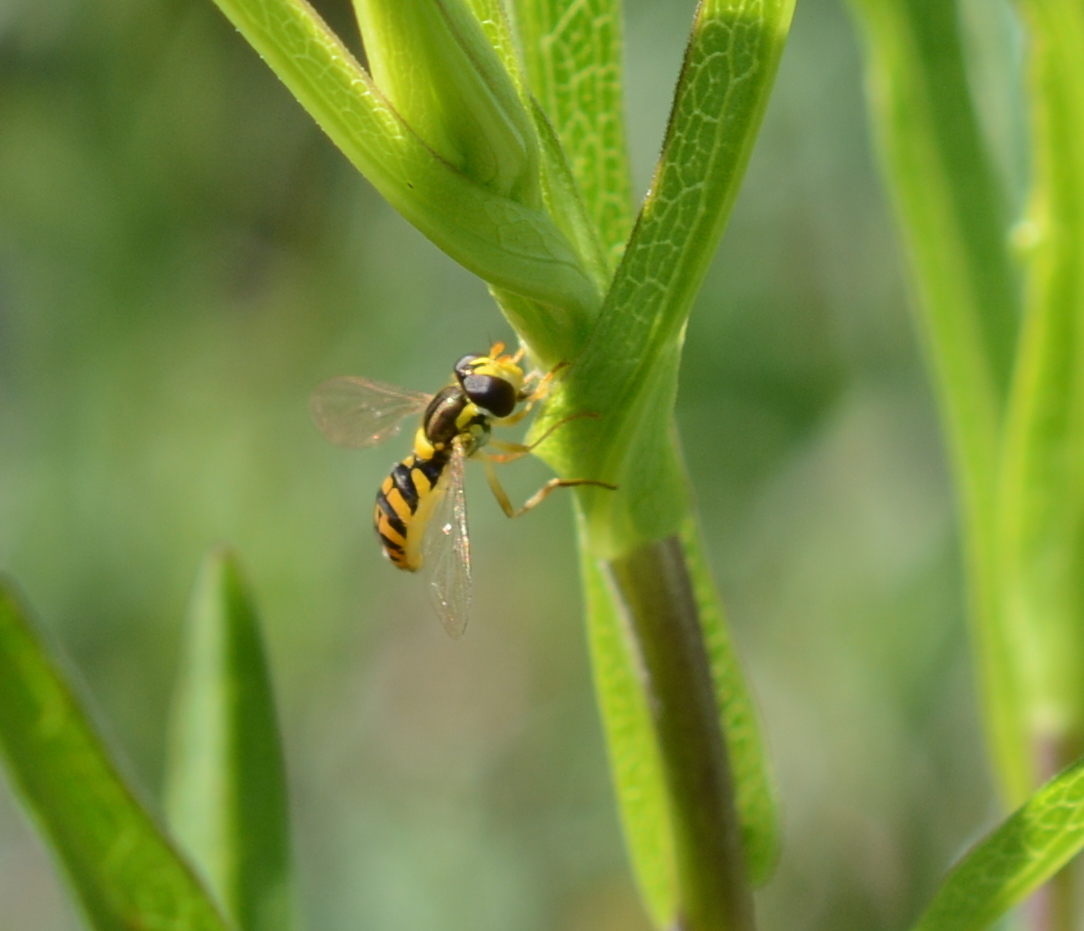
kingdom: Animalia
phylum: Arthropoda
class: Insecta
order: Diptera
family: Syrphidae
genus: Sphaerophoria
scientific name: Sphaerophoria pyrrhina
